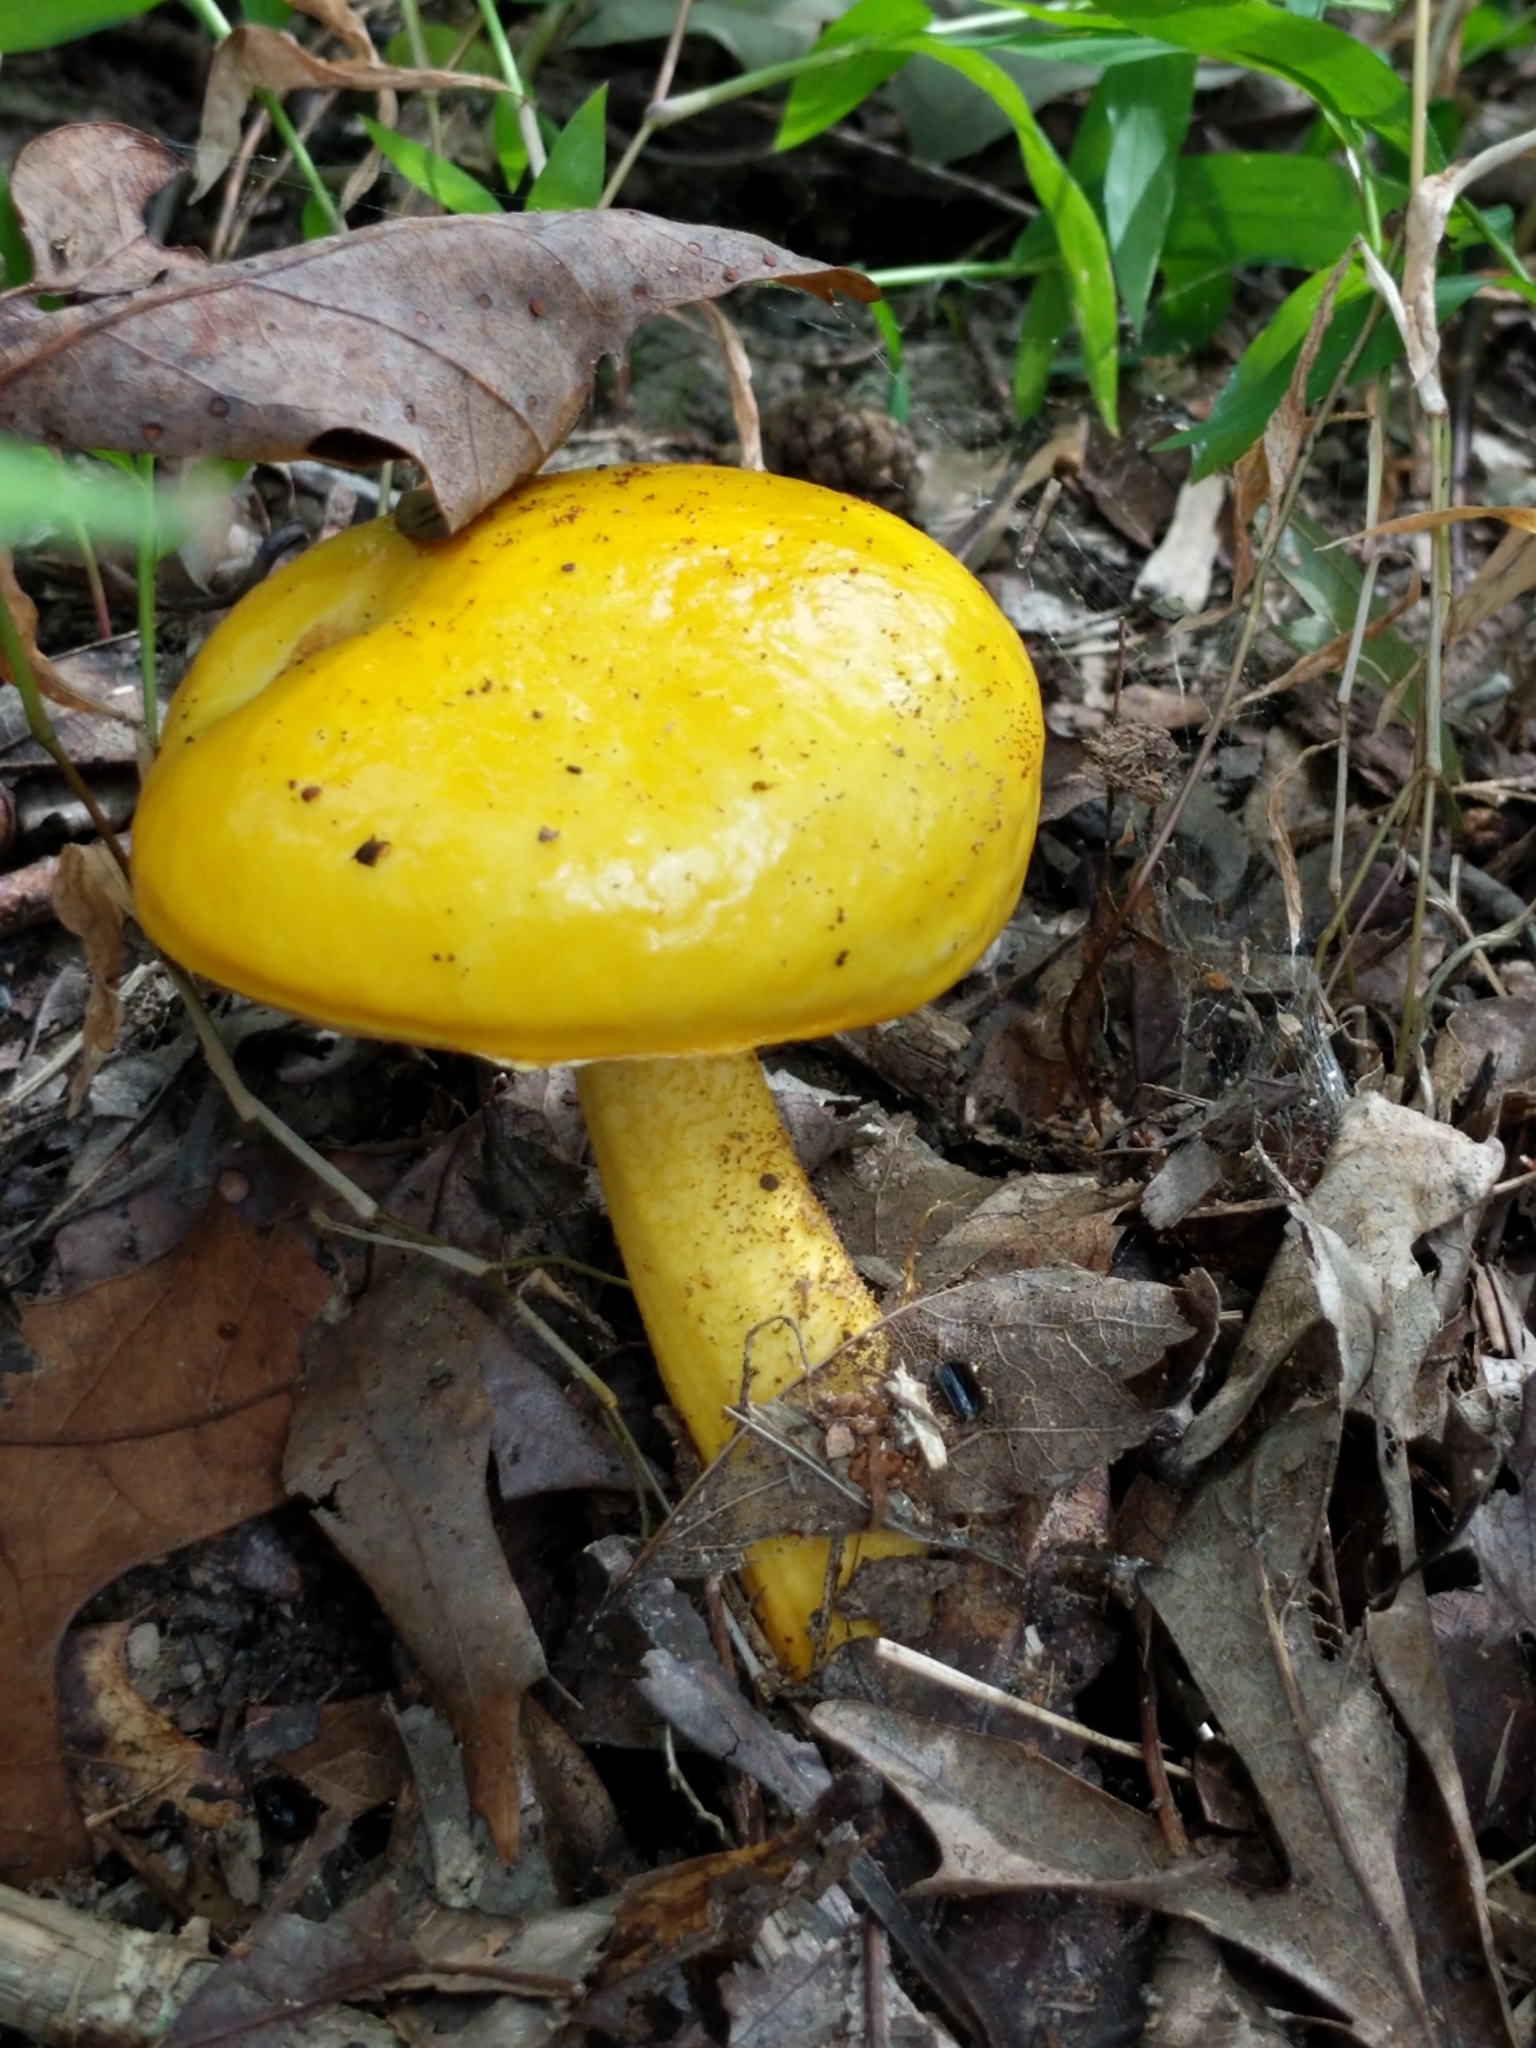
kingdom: Fungi
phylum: Basidiomycota
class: Agaricomycetes
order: Boletales
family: Boletaceae
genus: Pulveroboletus
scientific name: Pulveroboletus curtisii
